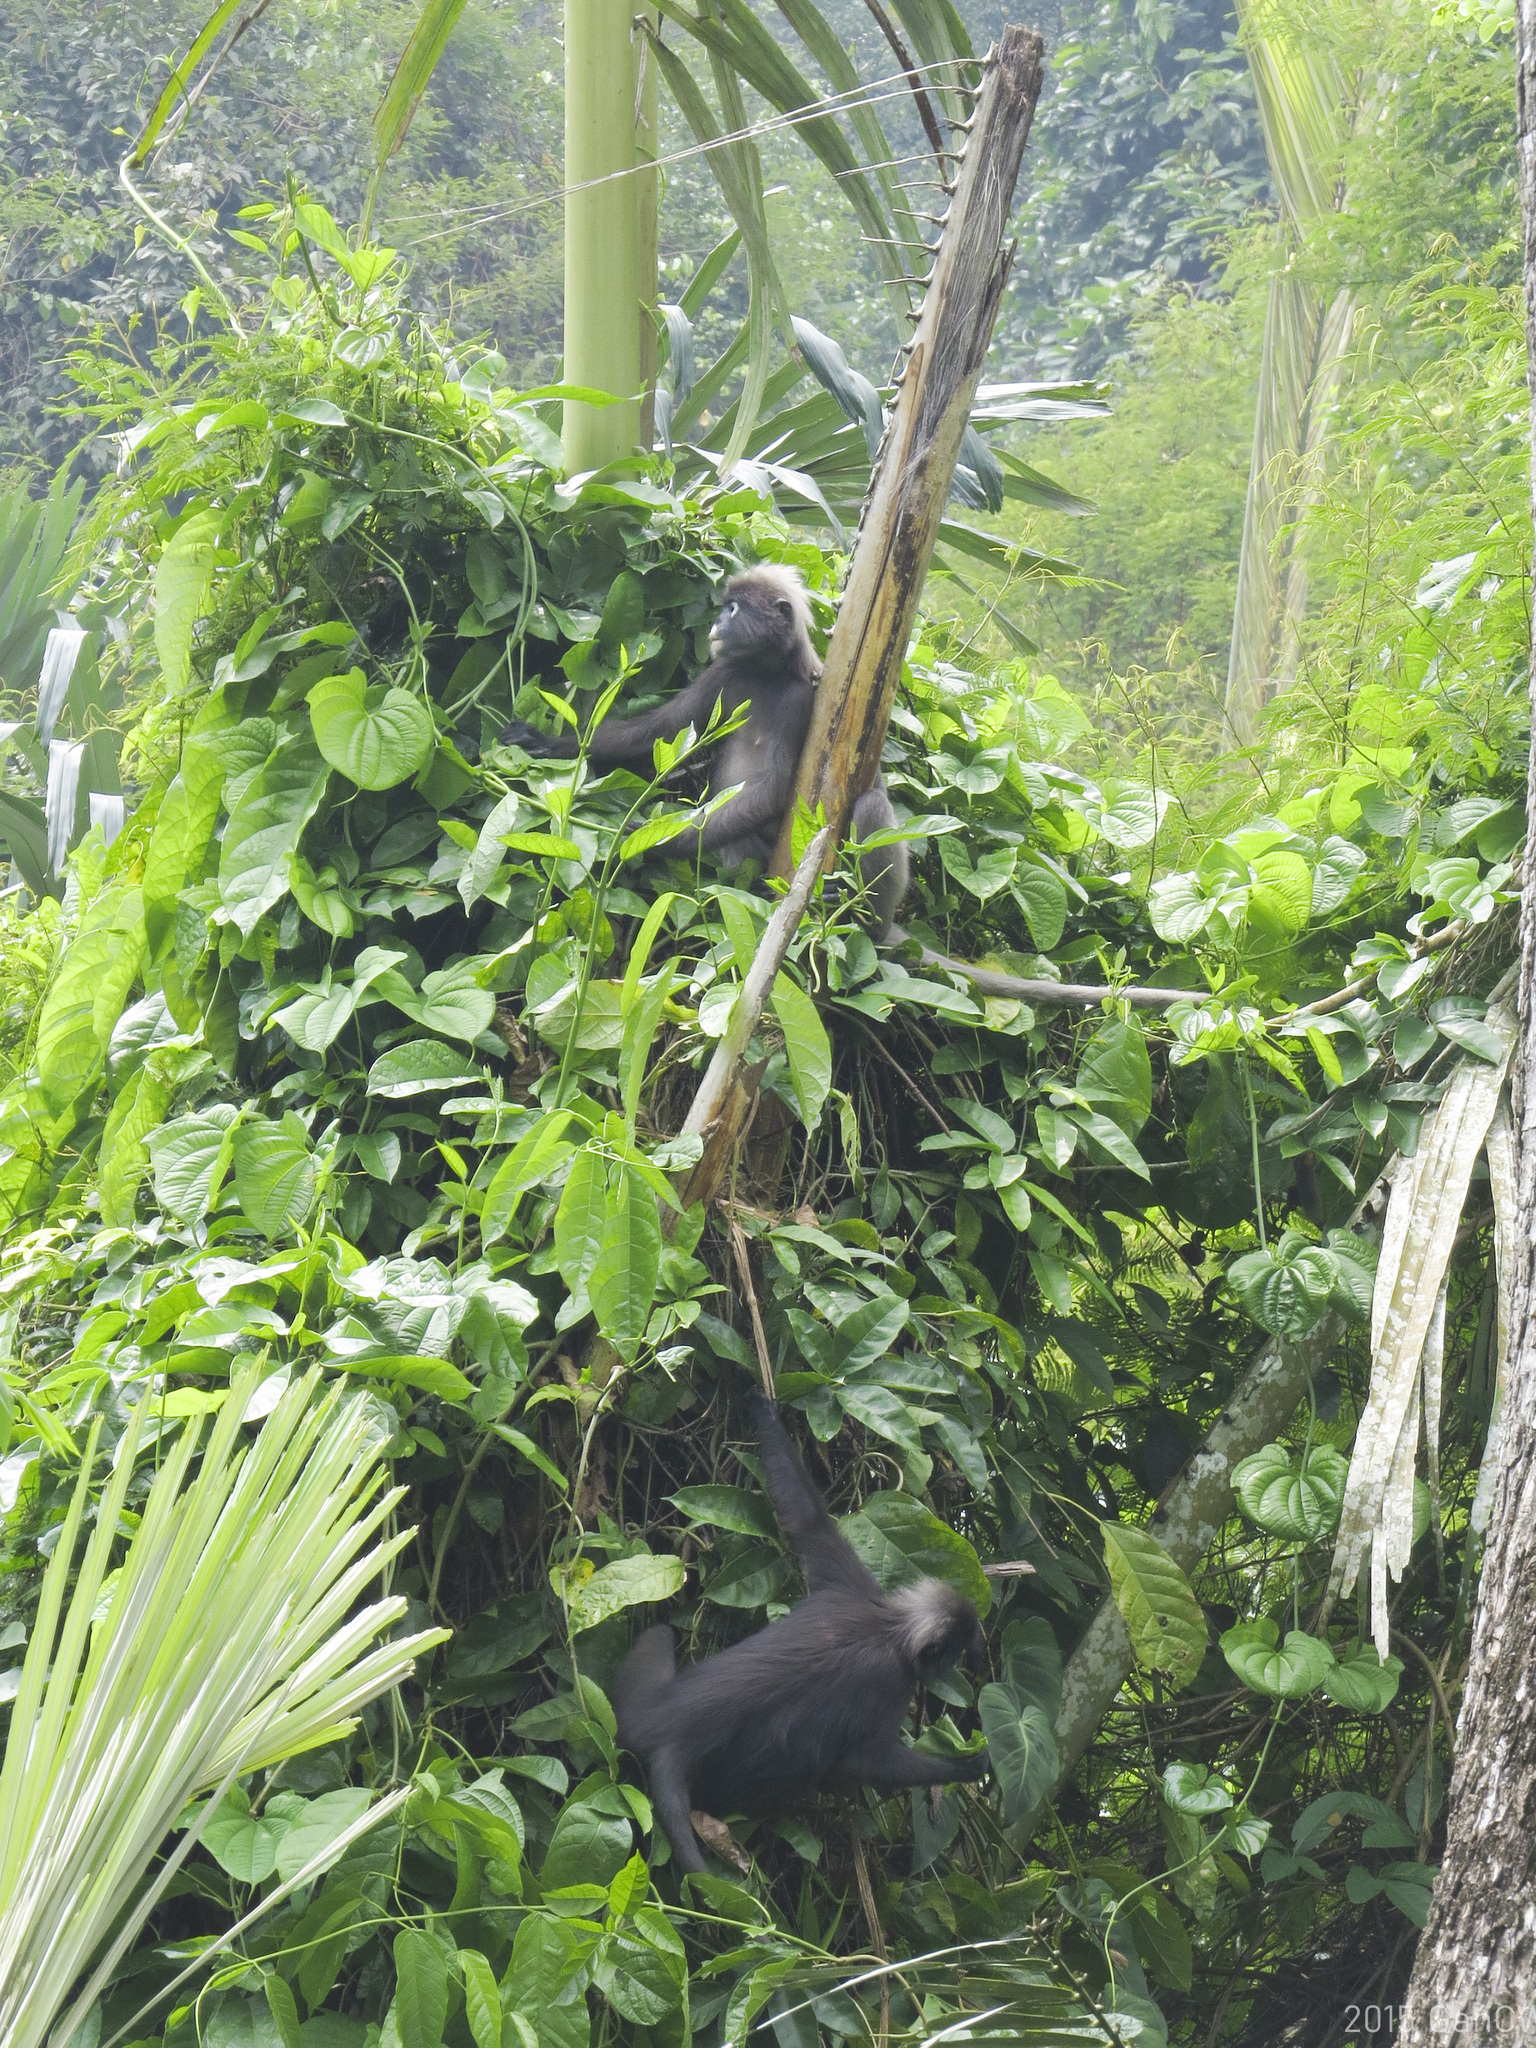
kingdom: Animalia
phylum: Chordata
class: Mammalia
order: Primates
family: Cercopithecidae
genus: Trachypithecus
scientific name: Trachypithecus obscurus
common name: Dusky leaf-monkey
